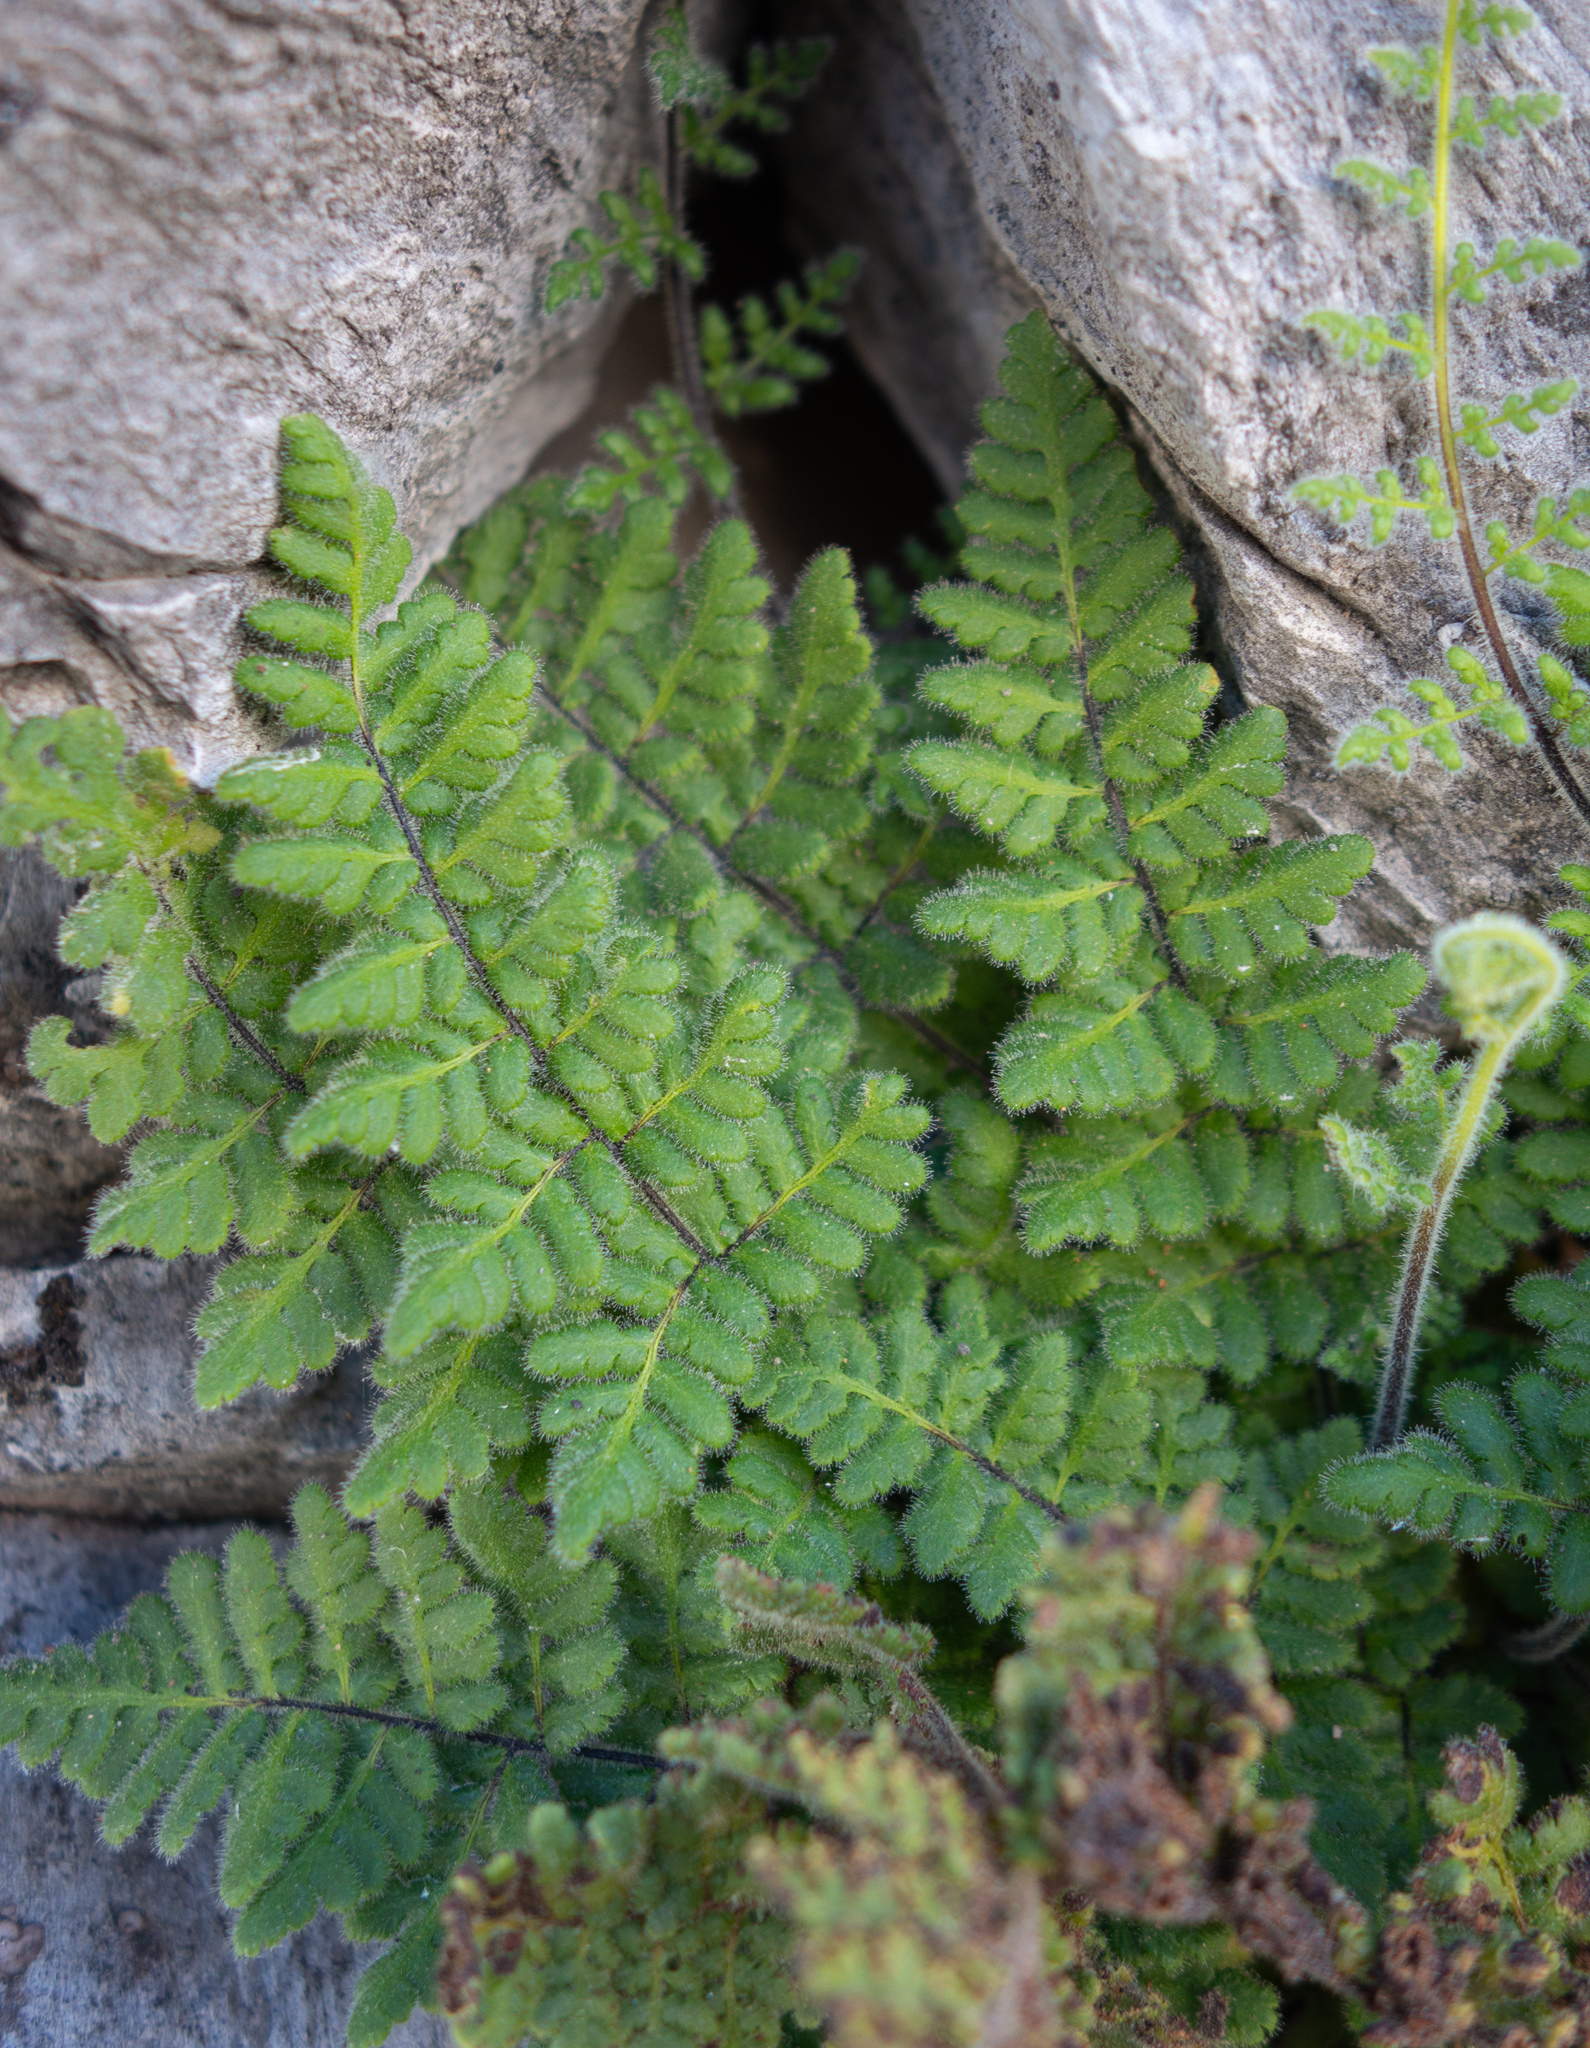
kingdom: Plantae
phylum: Tracheophyta
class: Polypodiopsida
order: Polypodiales
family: Pteridaceae
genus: Myriopteris
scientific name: Myriopteris cooperae
